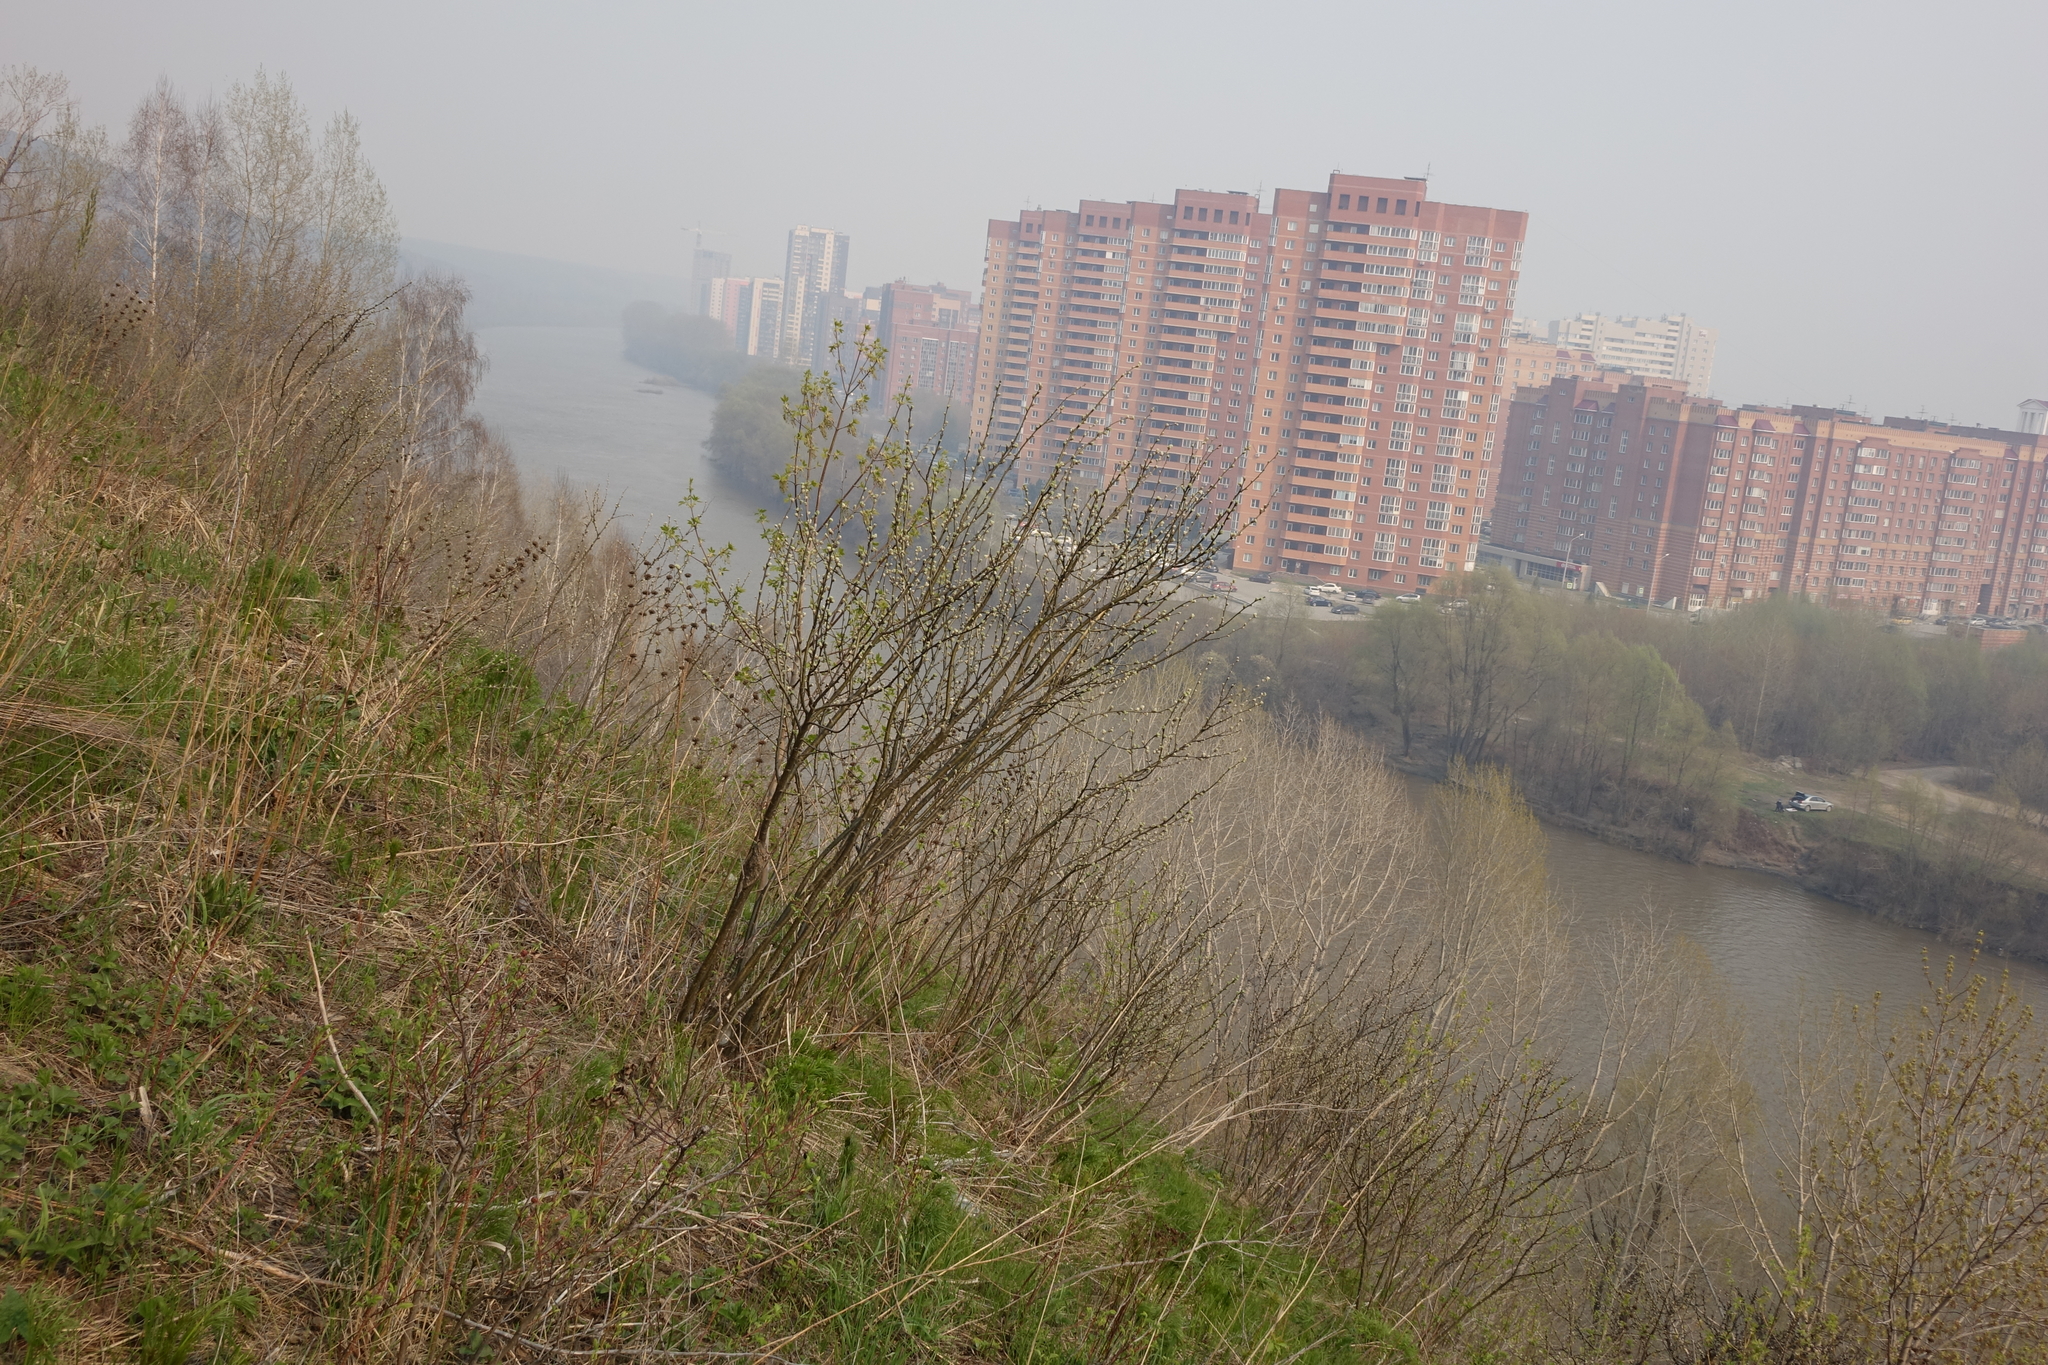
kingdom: Plantae
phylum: Tracheophyta
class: Magnoliopsida
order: Fabales
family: Fabaceae
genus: Caragana
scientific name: Caragana arborescens
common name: Siberian peashrub
